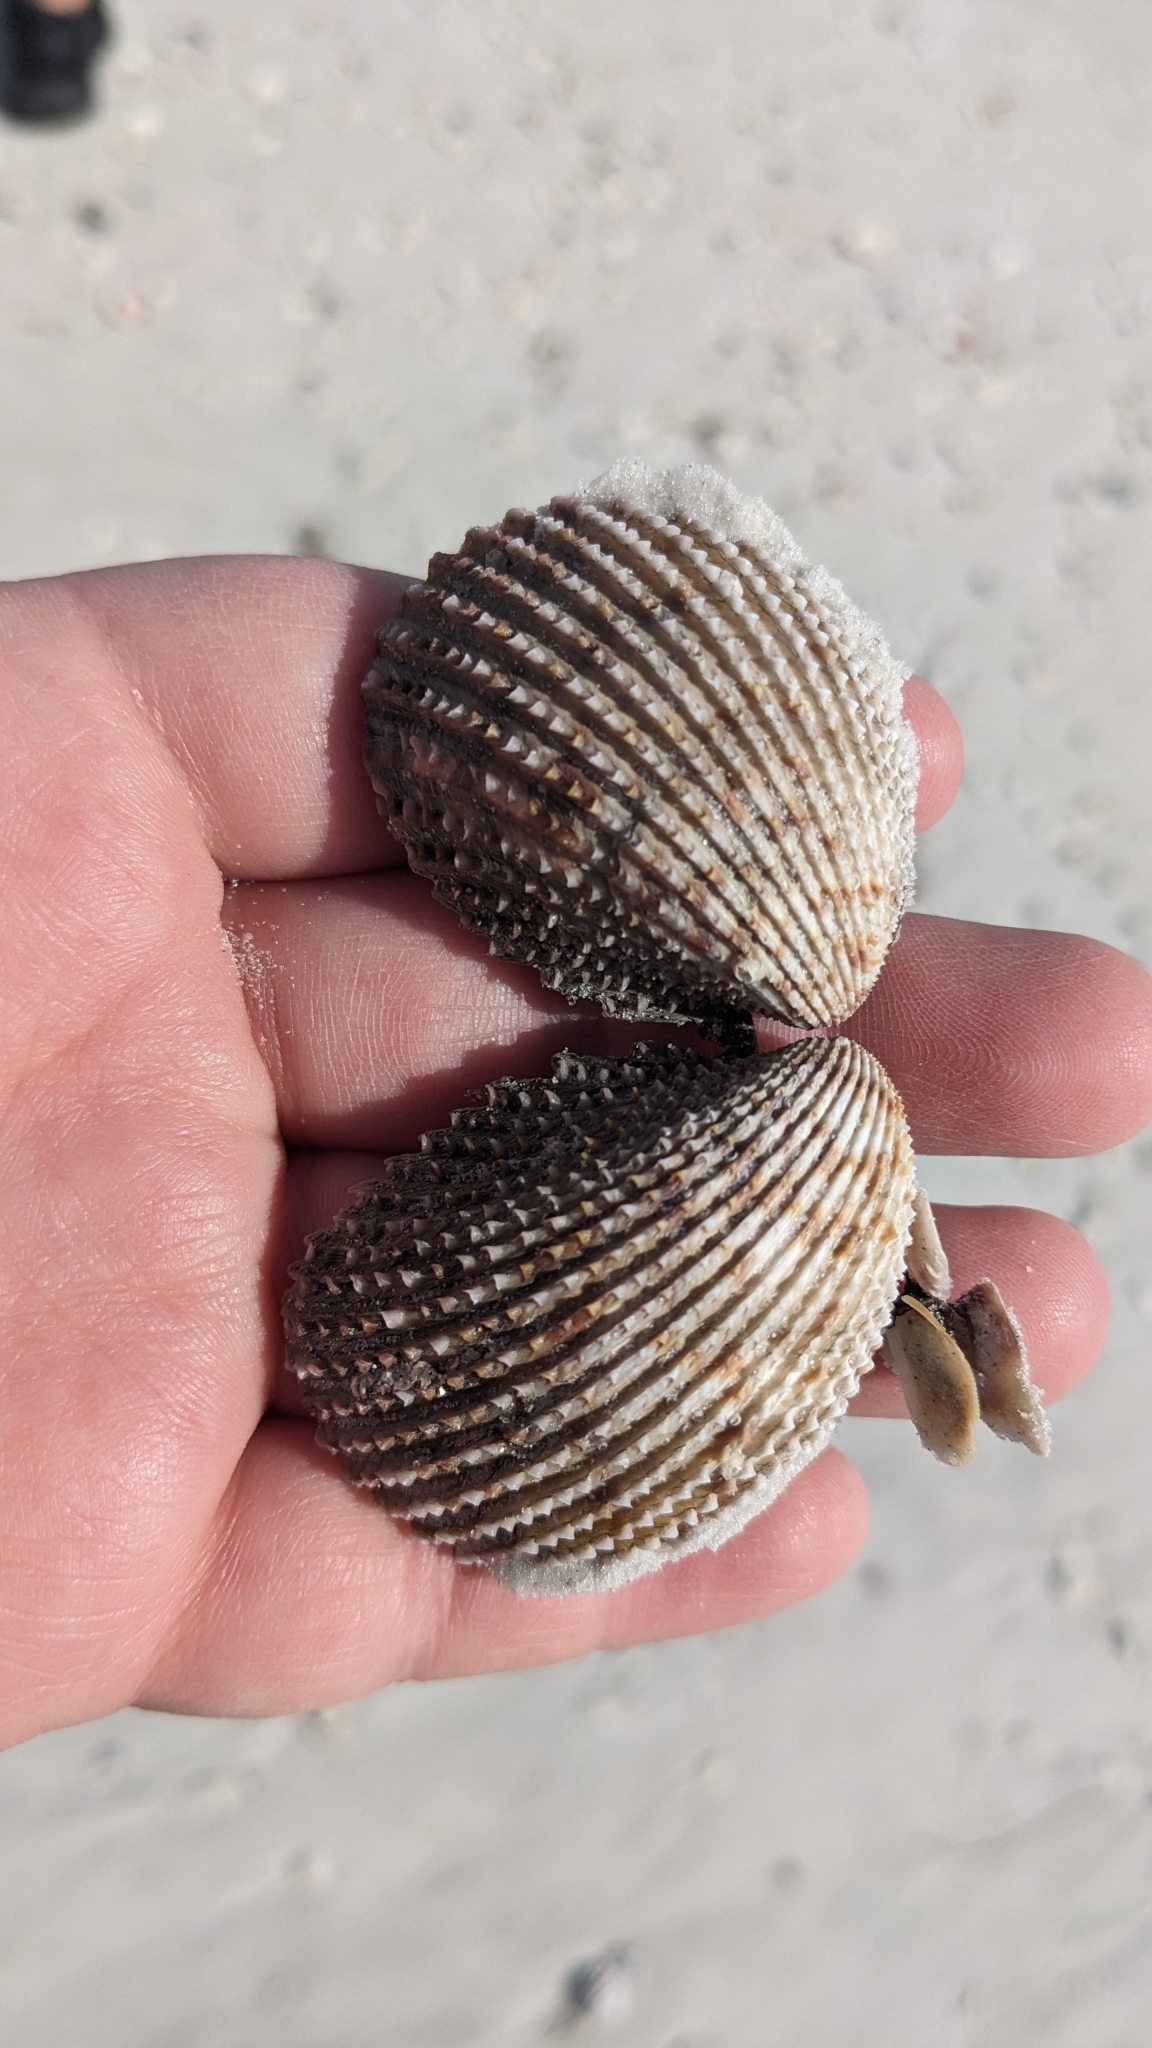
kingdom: Animalia
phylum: Mollusca
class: Bivalvia
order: Cardiida
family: Cardiidae
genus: Trachycardium
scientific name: Trachycardium egmontianum
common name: Florida pricklycockle
